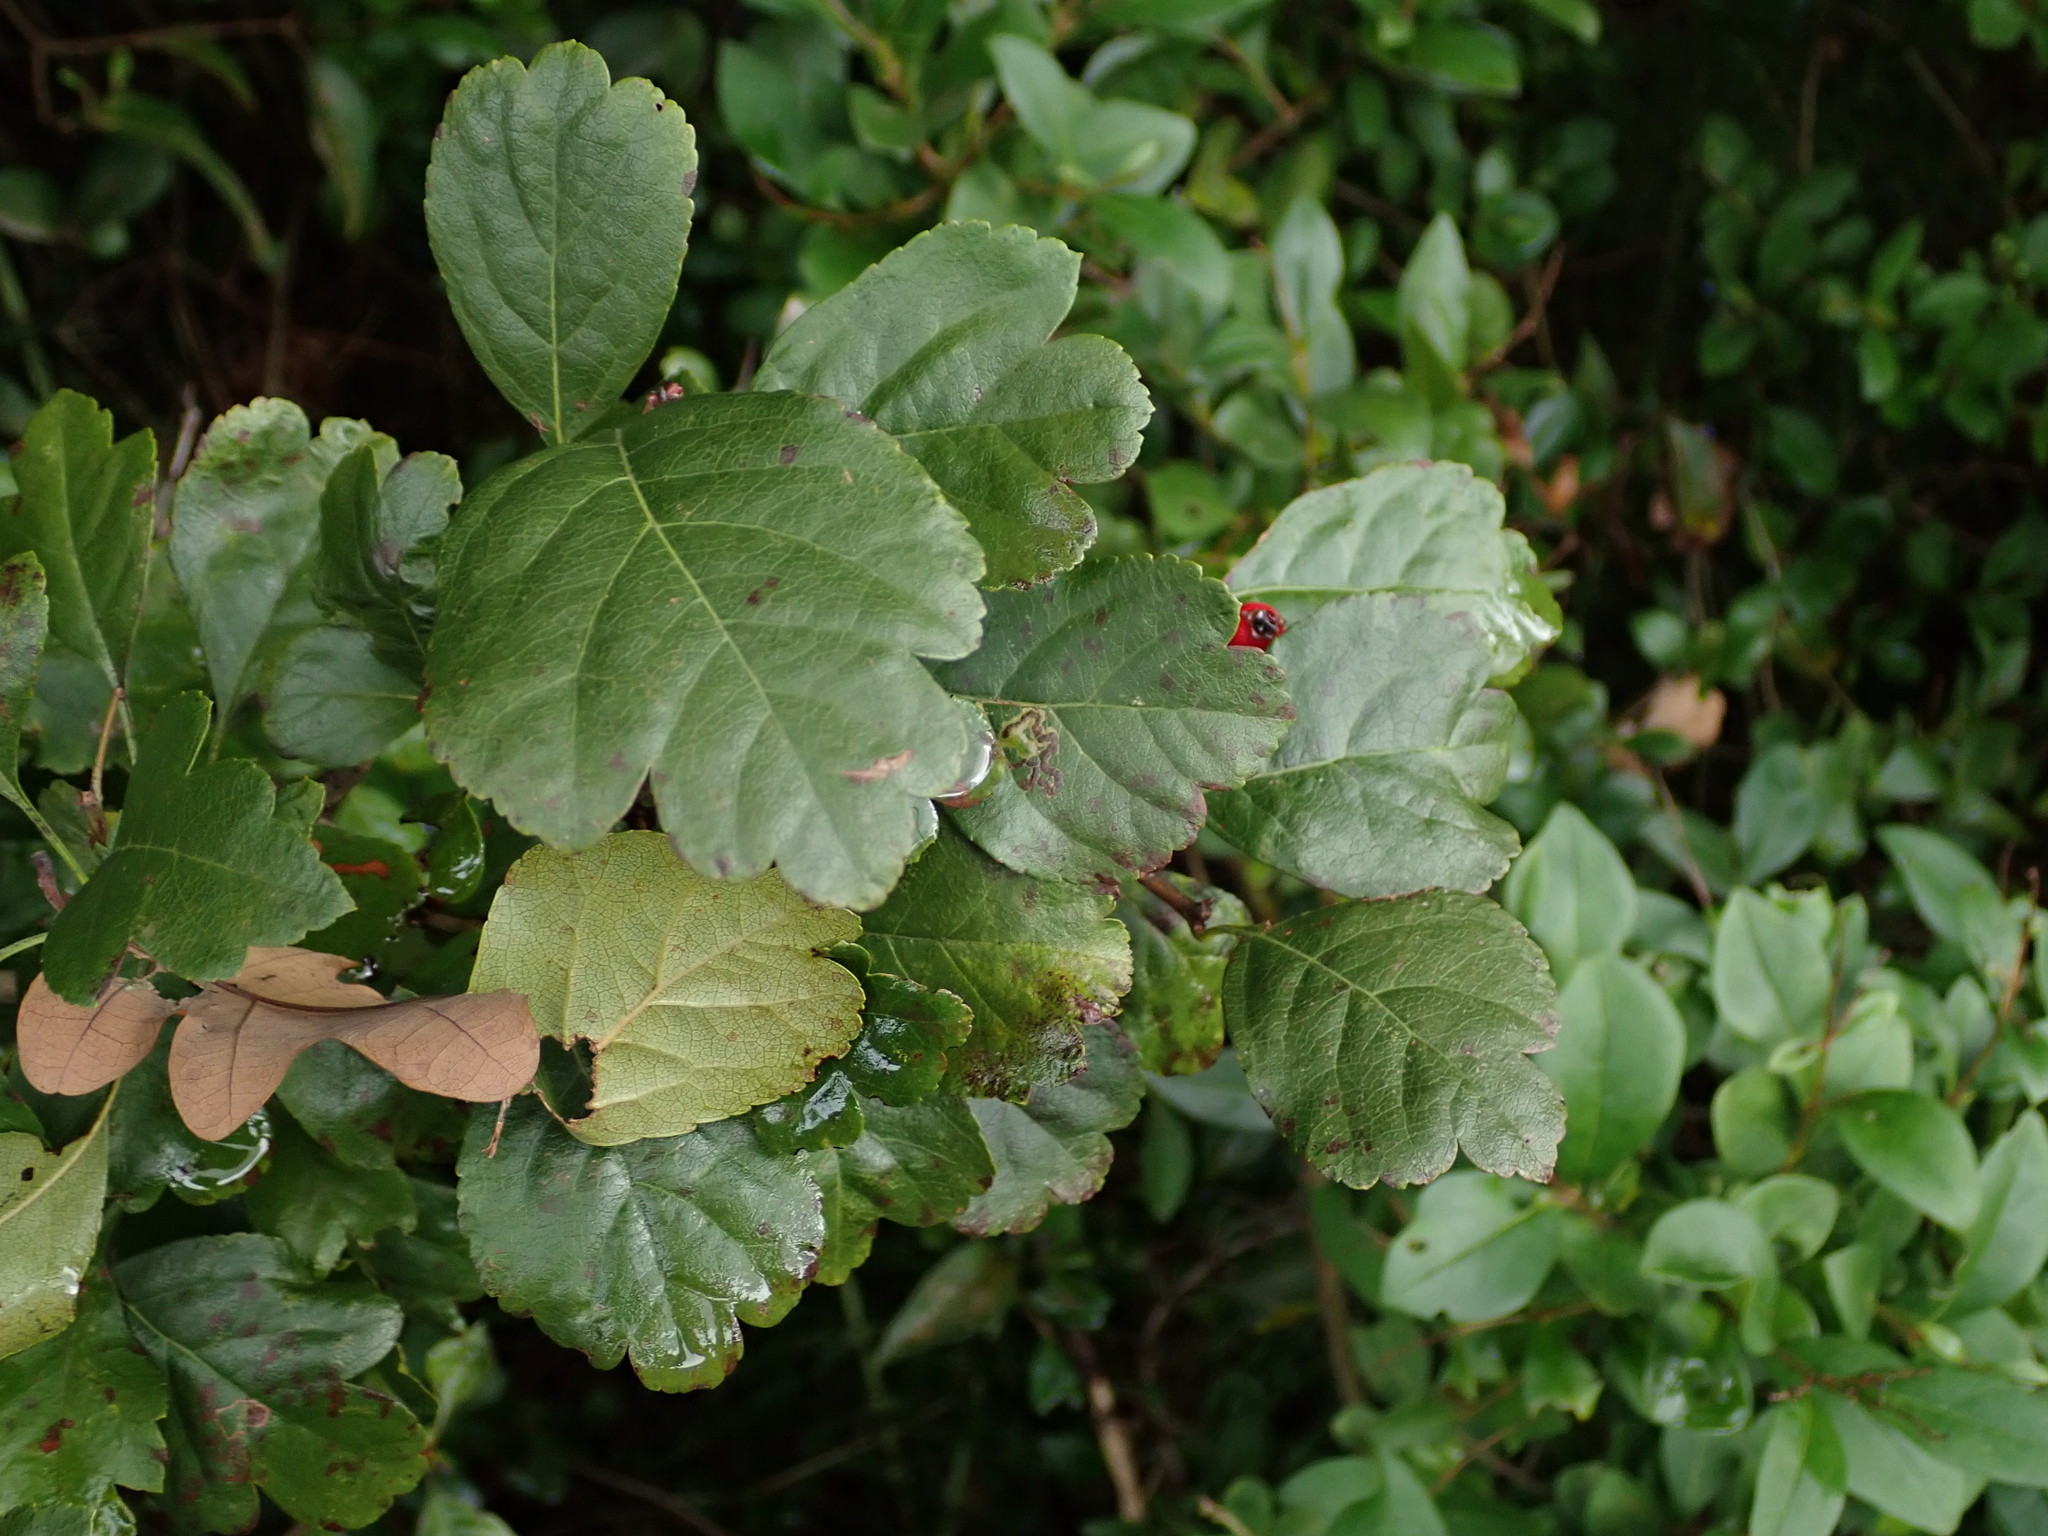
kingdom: Plantae
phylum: Tracheophyta
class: Magnoliopsida
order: Rosales
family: Rosaceae
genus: Crataegus
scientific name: Crataegus media
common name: Intermediate hawthorn
